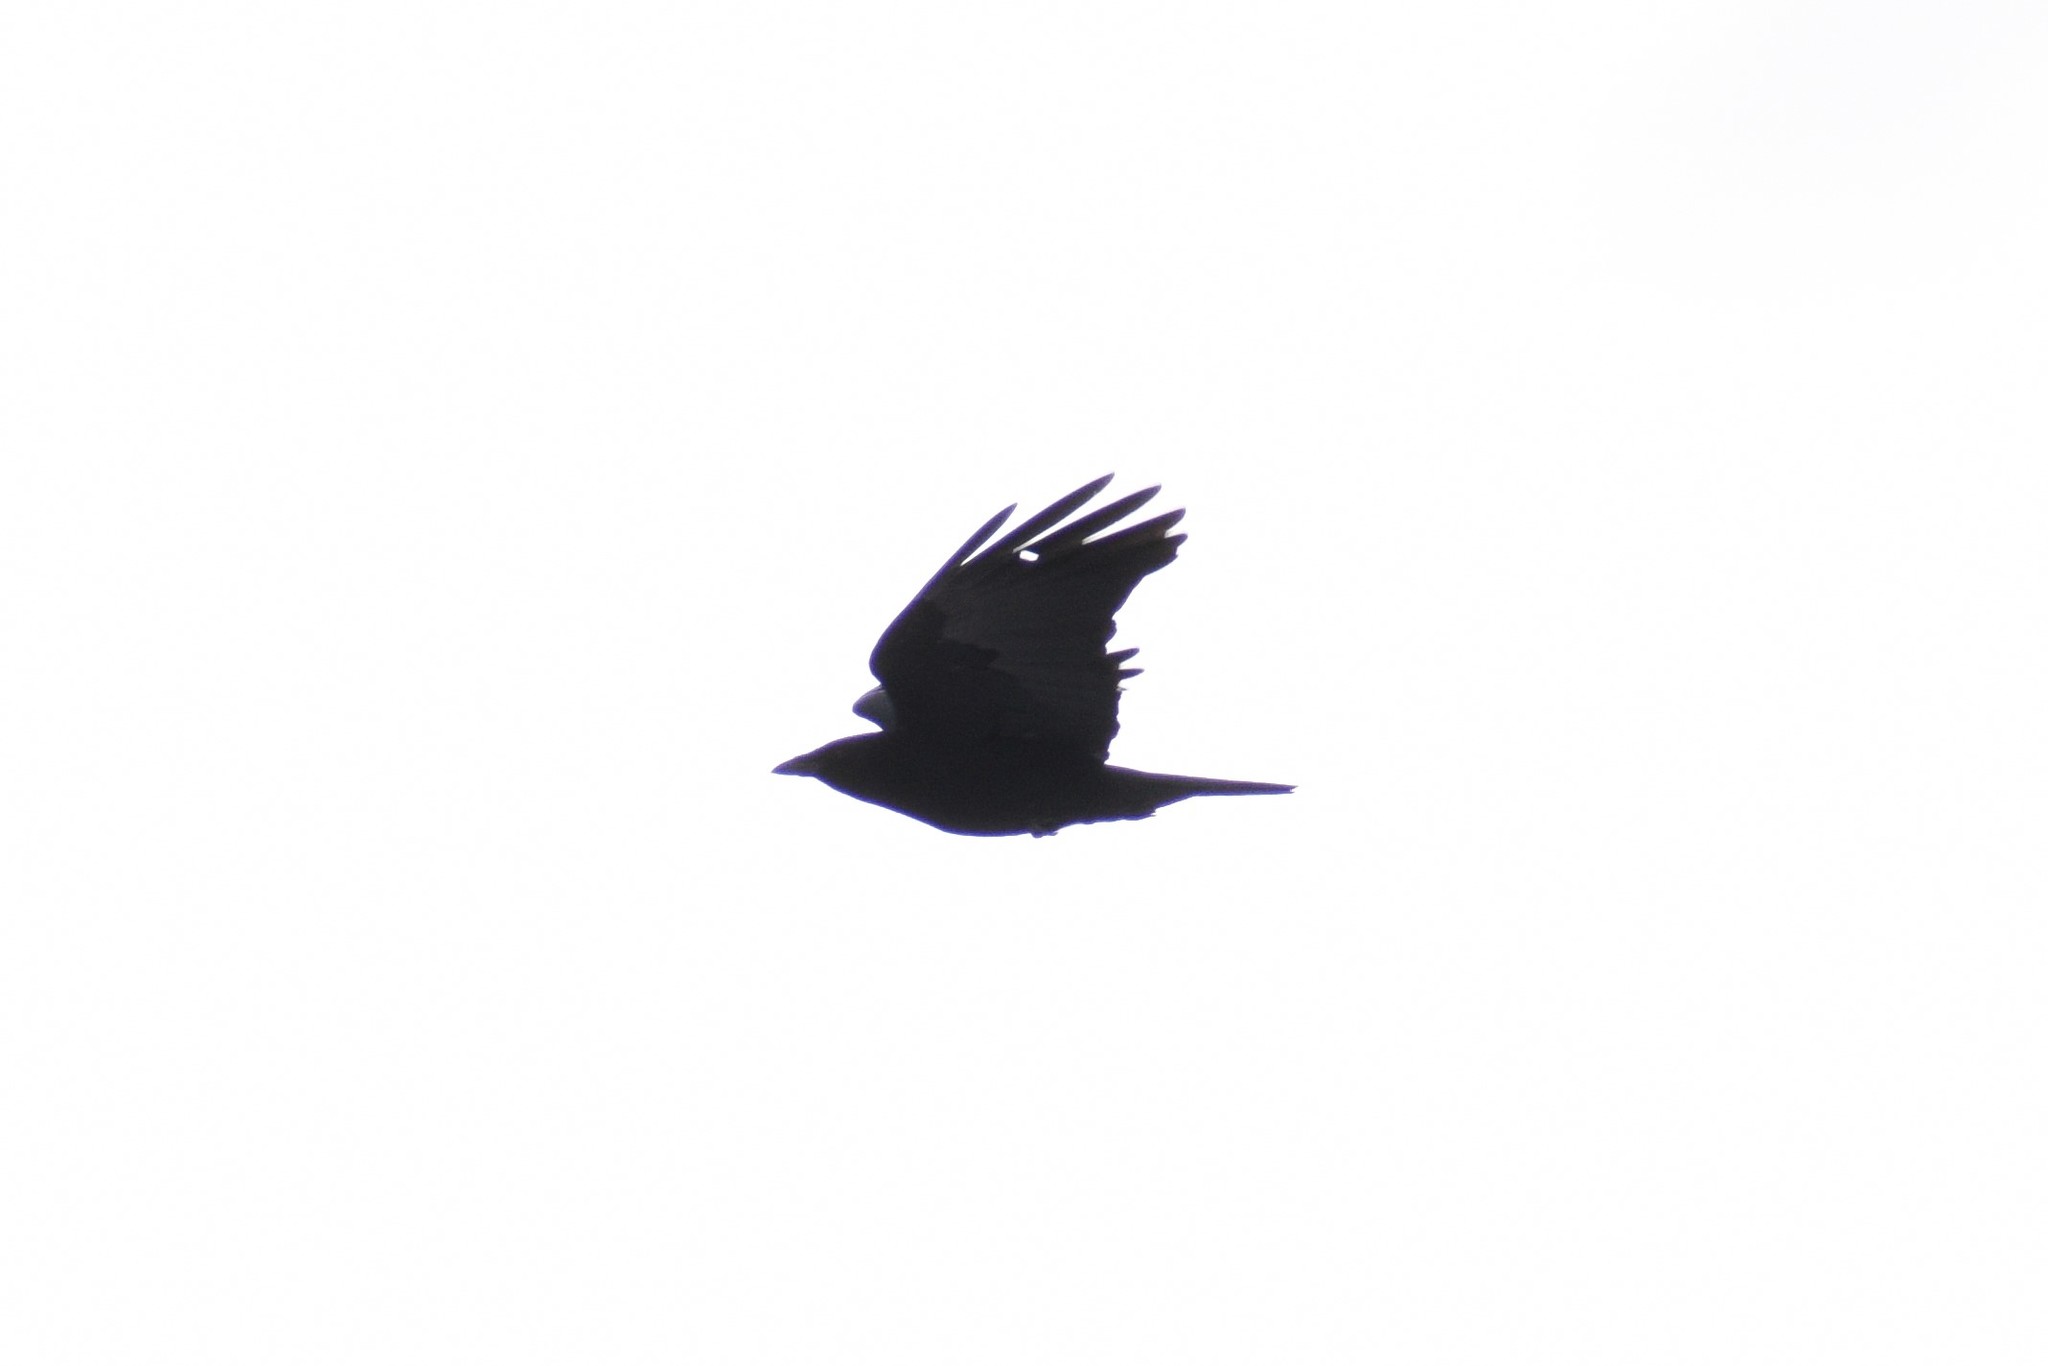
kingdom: Animalia
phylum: Chordata
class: Aves
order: Passeriformes
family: Corvidae
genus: Corvus
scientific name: Corvus brachyrhynchos
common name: American crow
